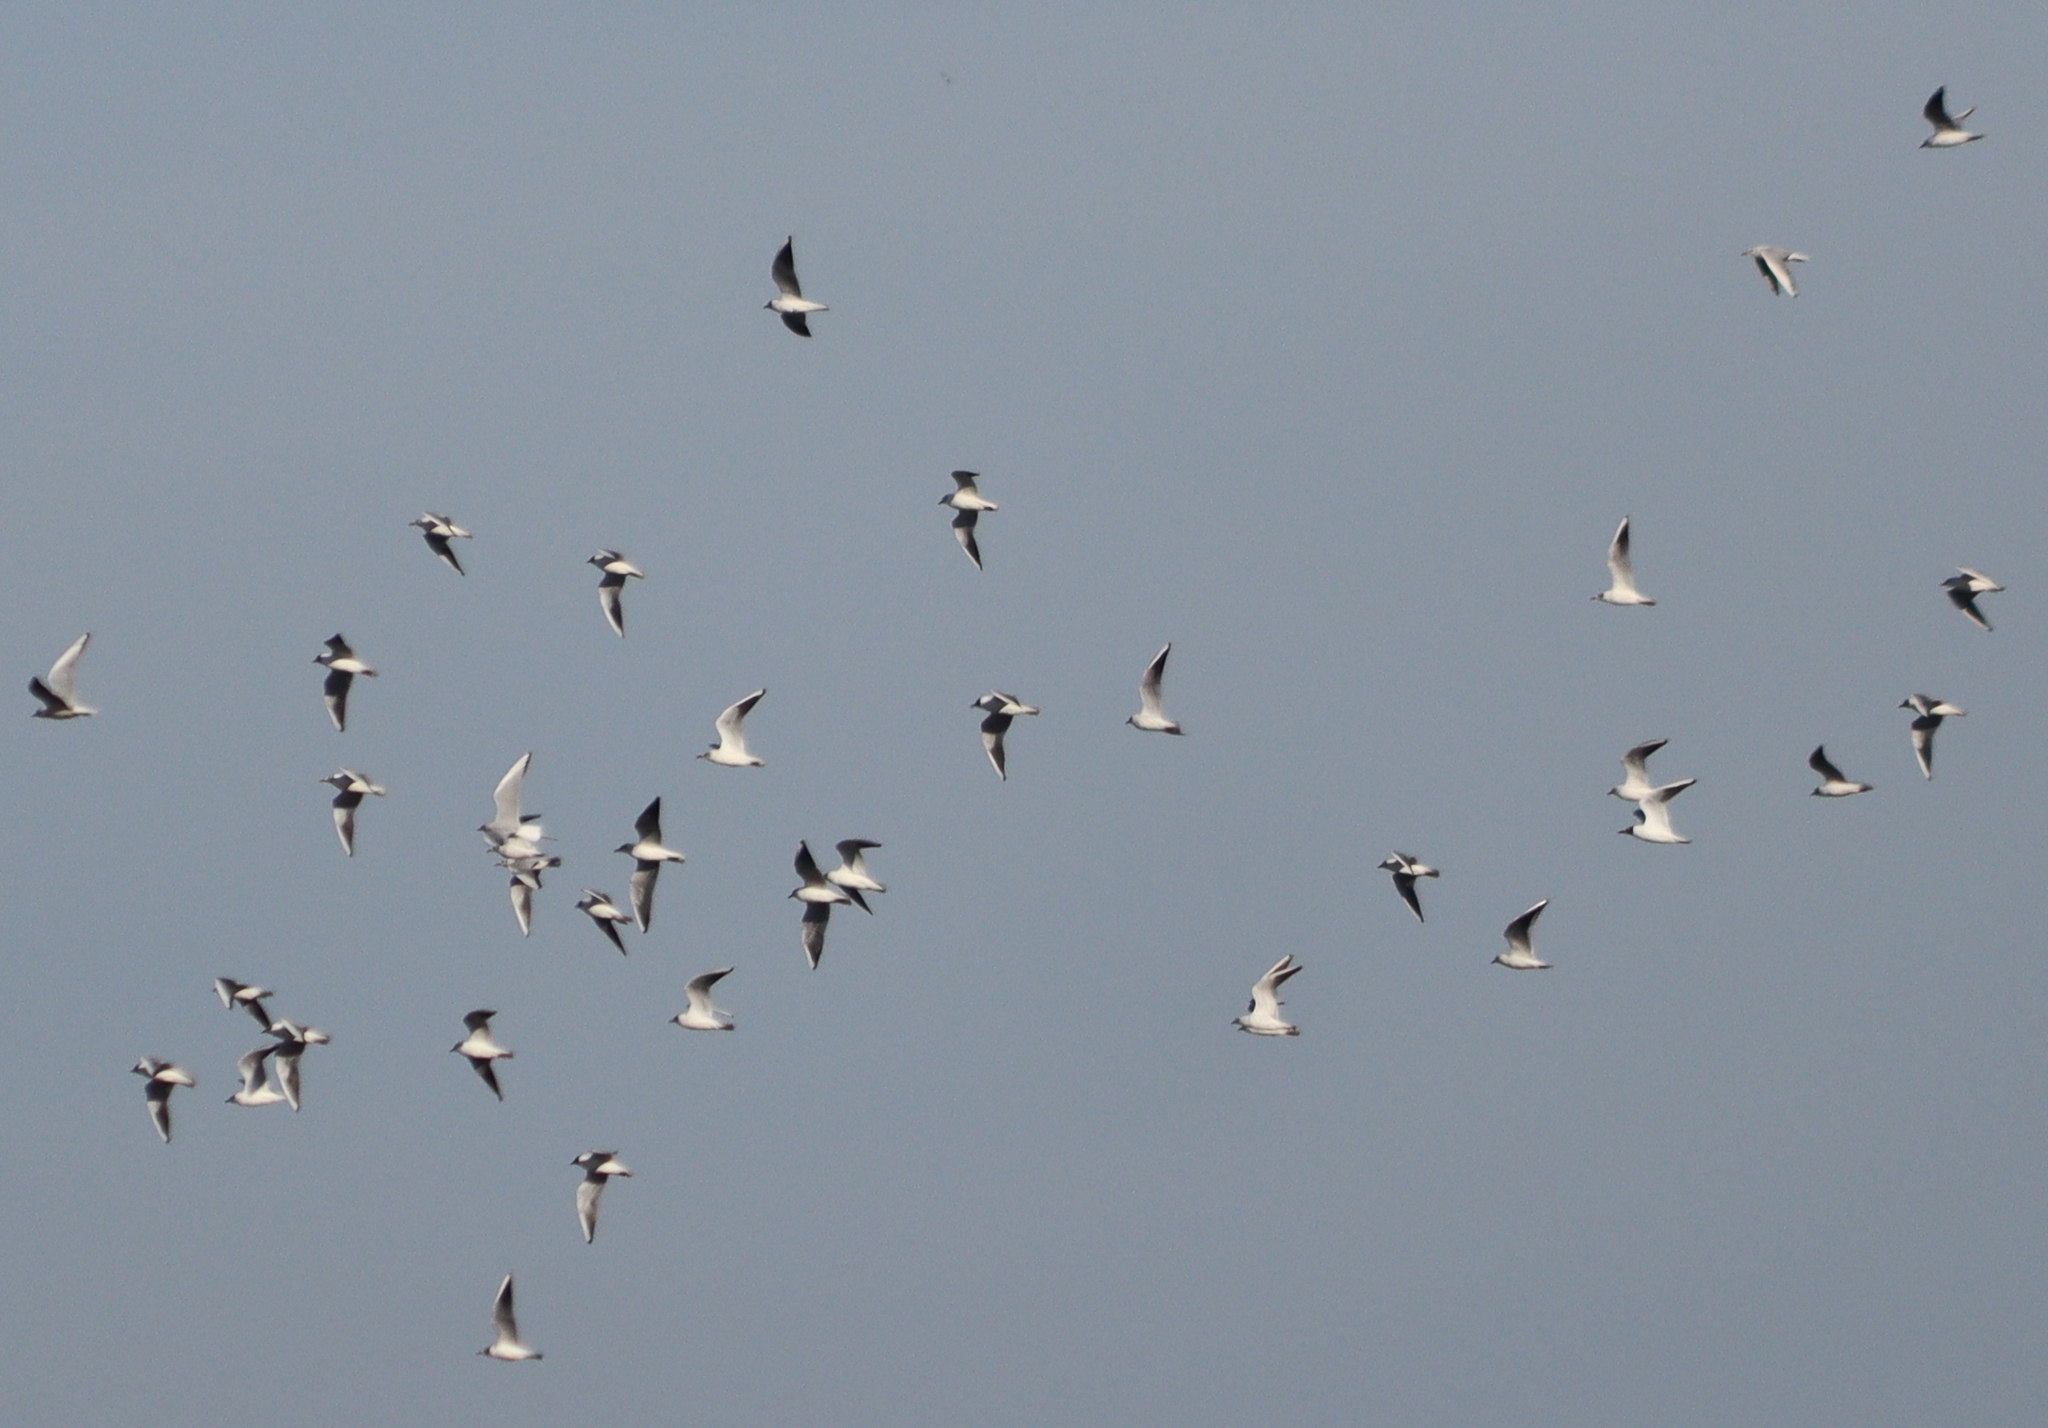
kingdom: Animalia
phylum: Chordata
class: Aves
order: Charadriiformes
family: Laridae
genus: Chroicocephalus
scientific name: Chroicocephalus ridibundus
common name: Black-headed gull
